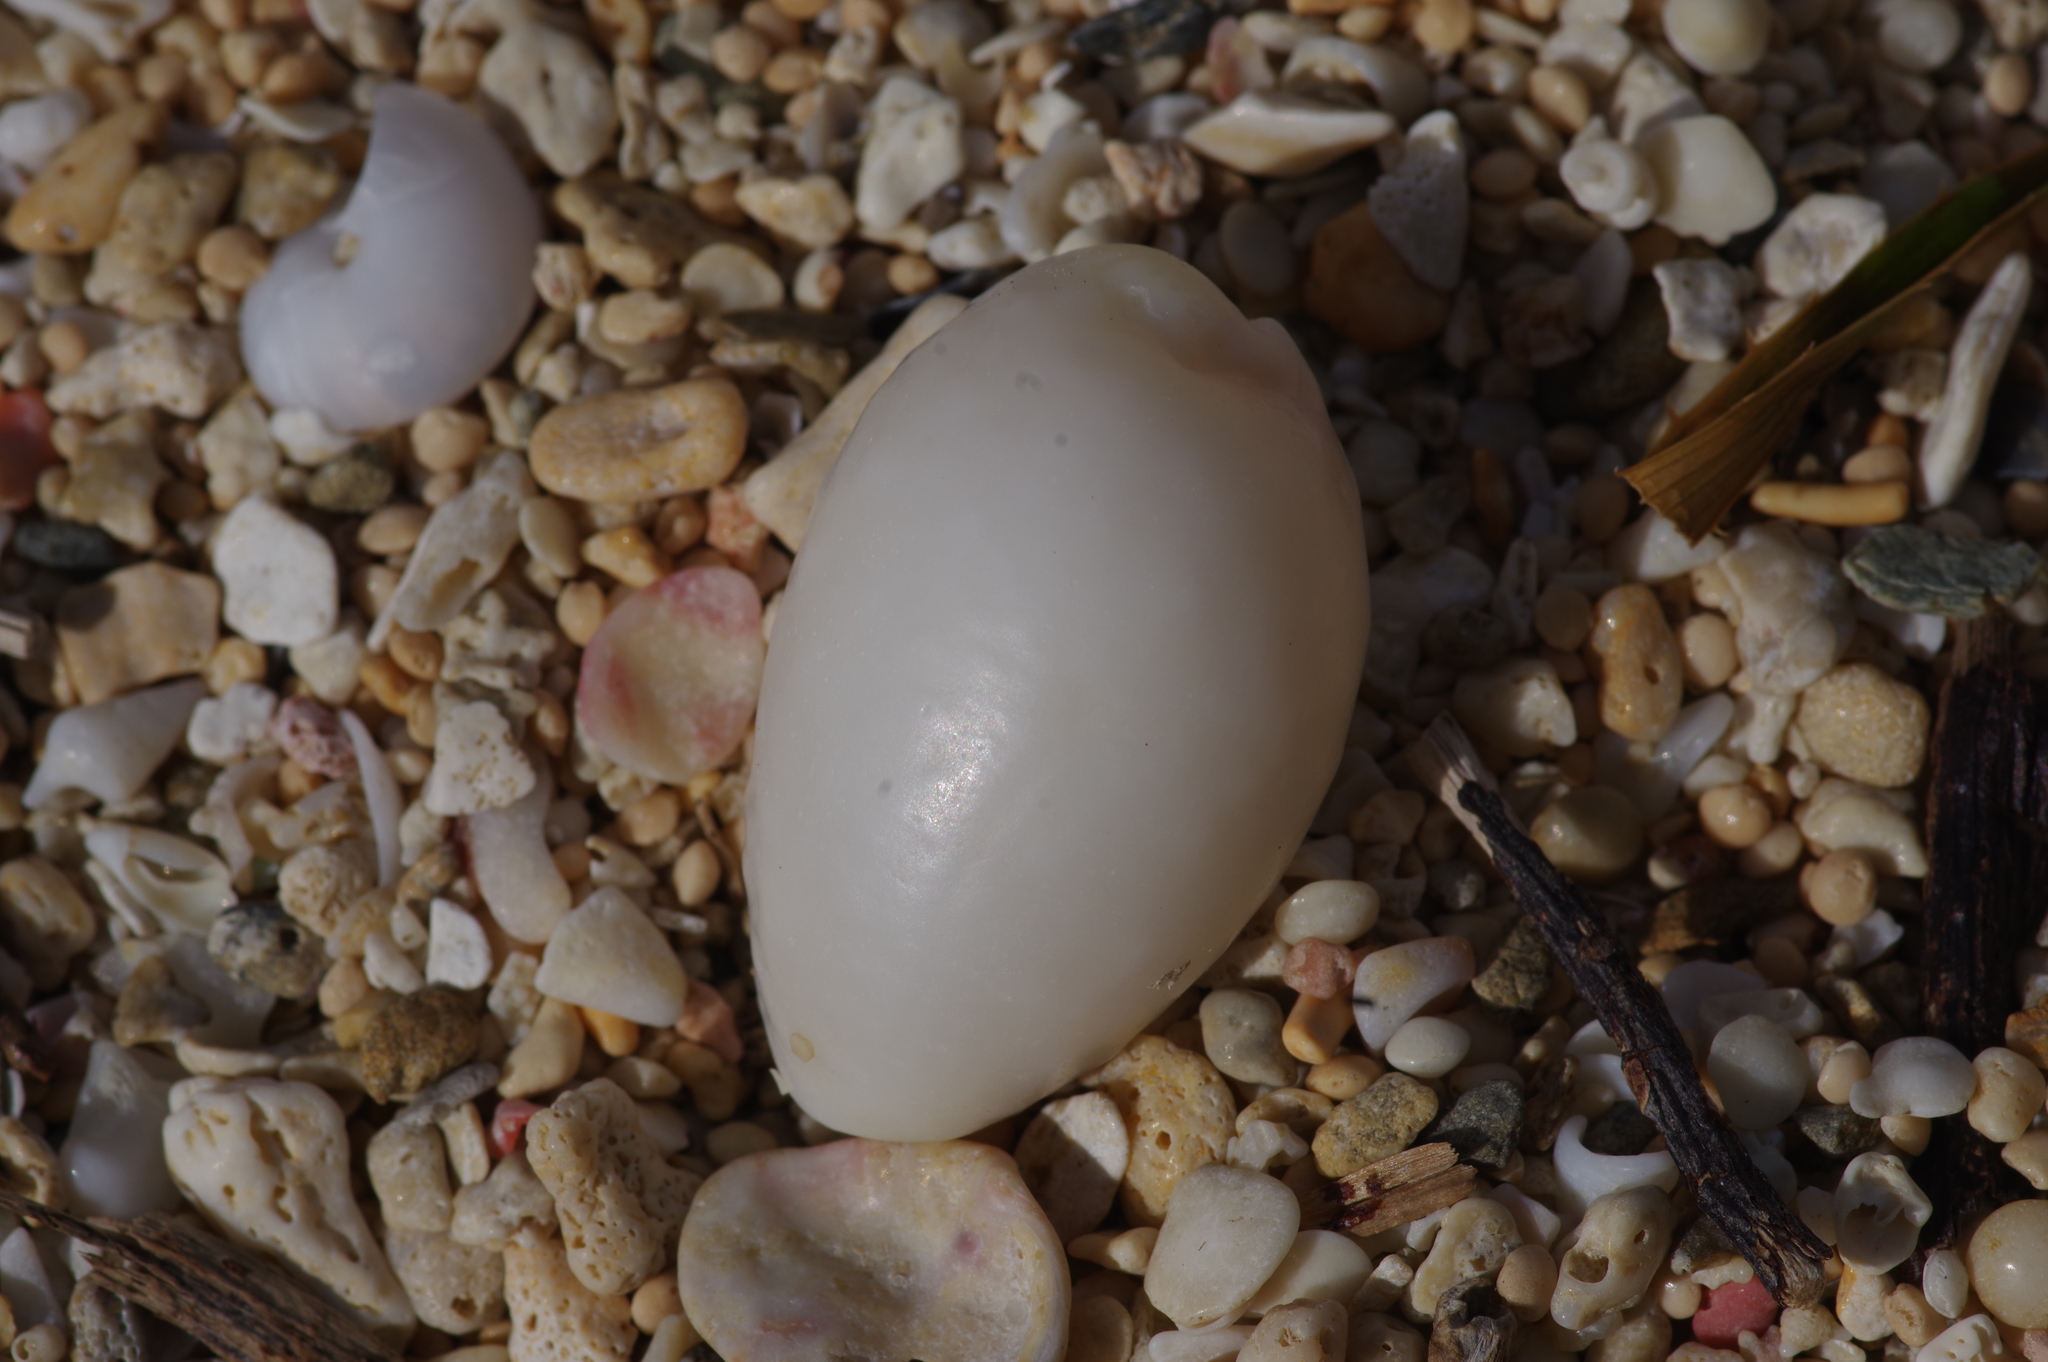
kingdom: Animalia
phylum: Mollusca
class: Gastropoda
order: Littorinimorpha
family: Cypraeidae
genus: Staphylaea
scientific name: Staphylaea staphylaea
